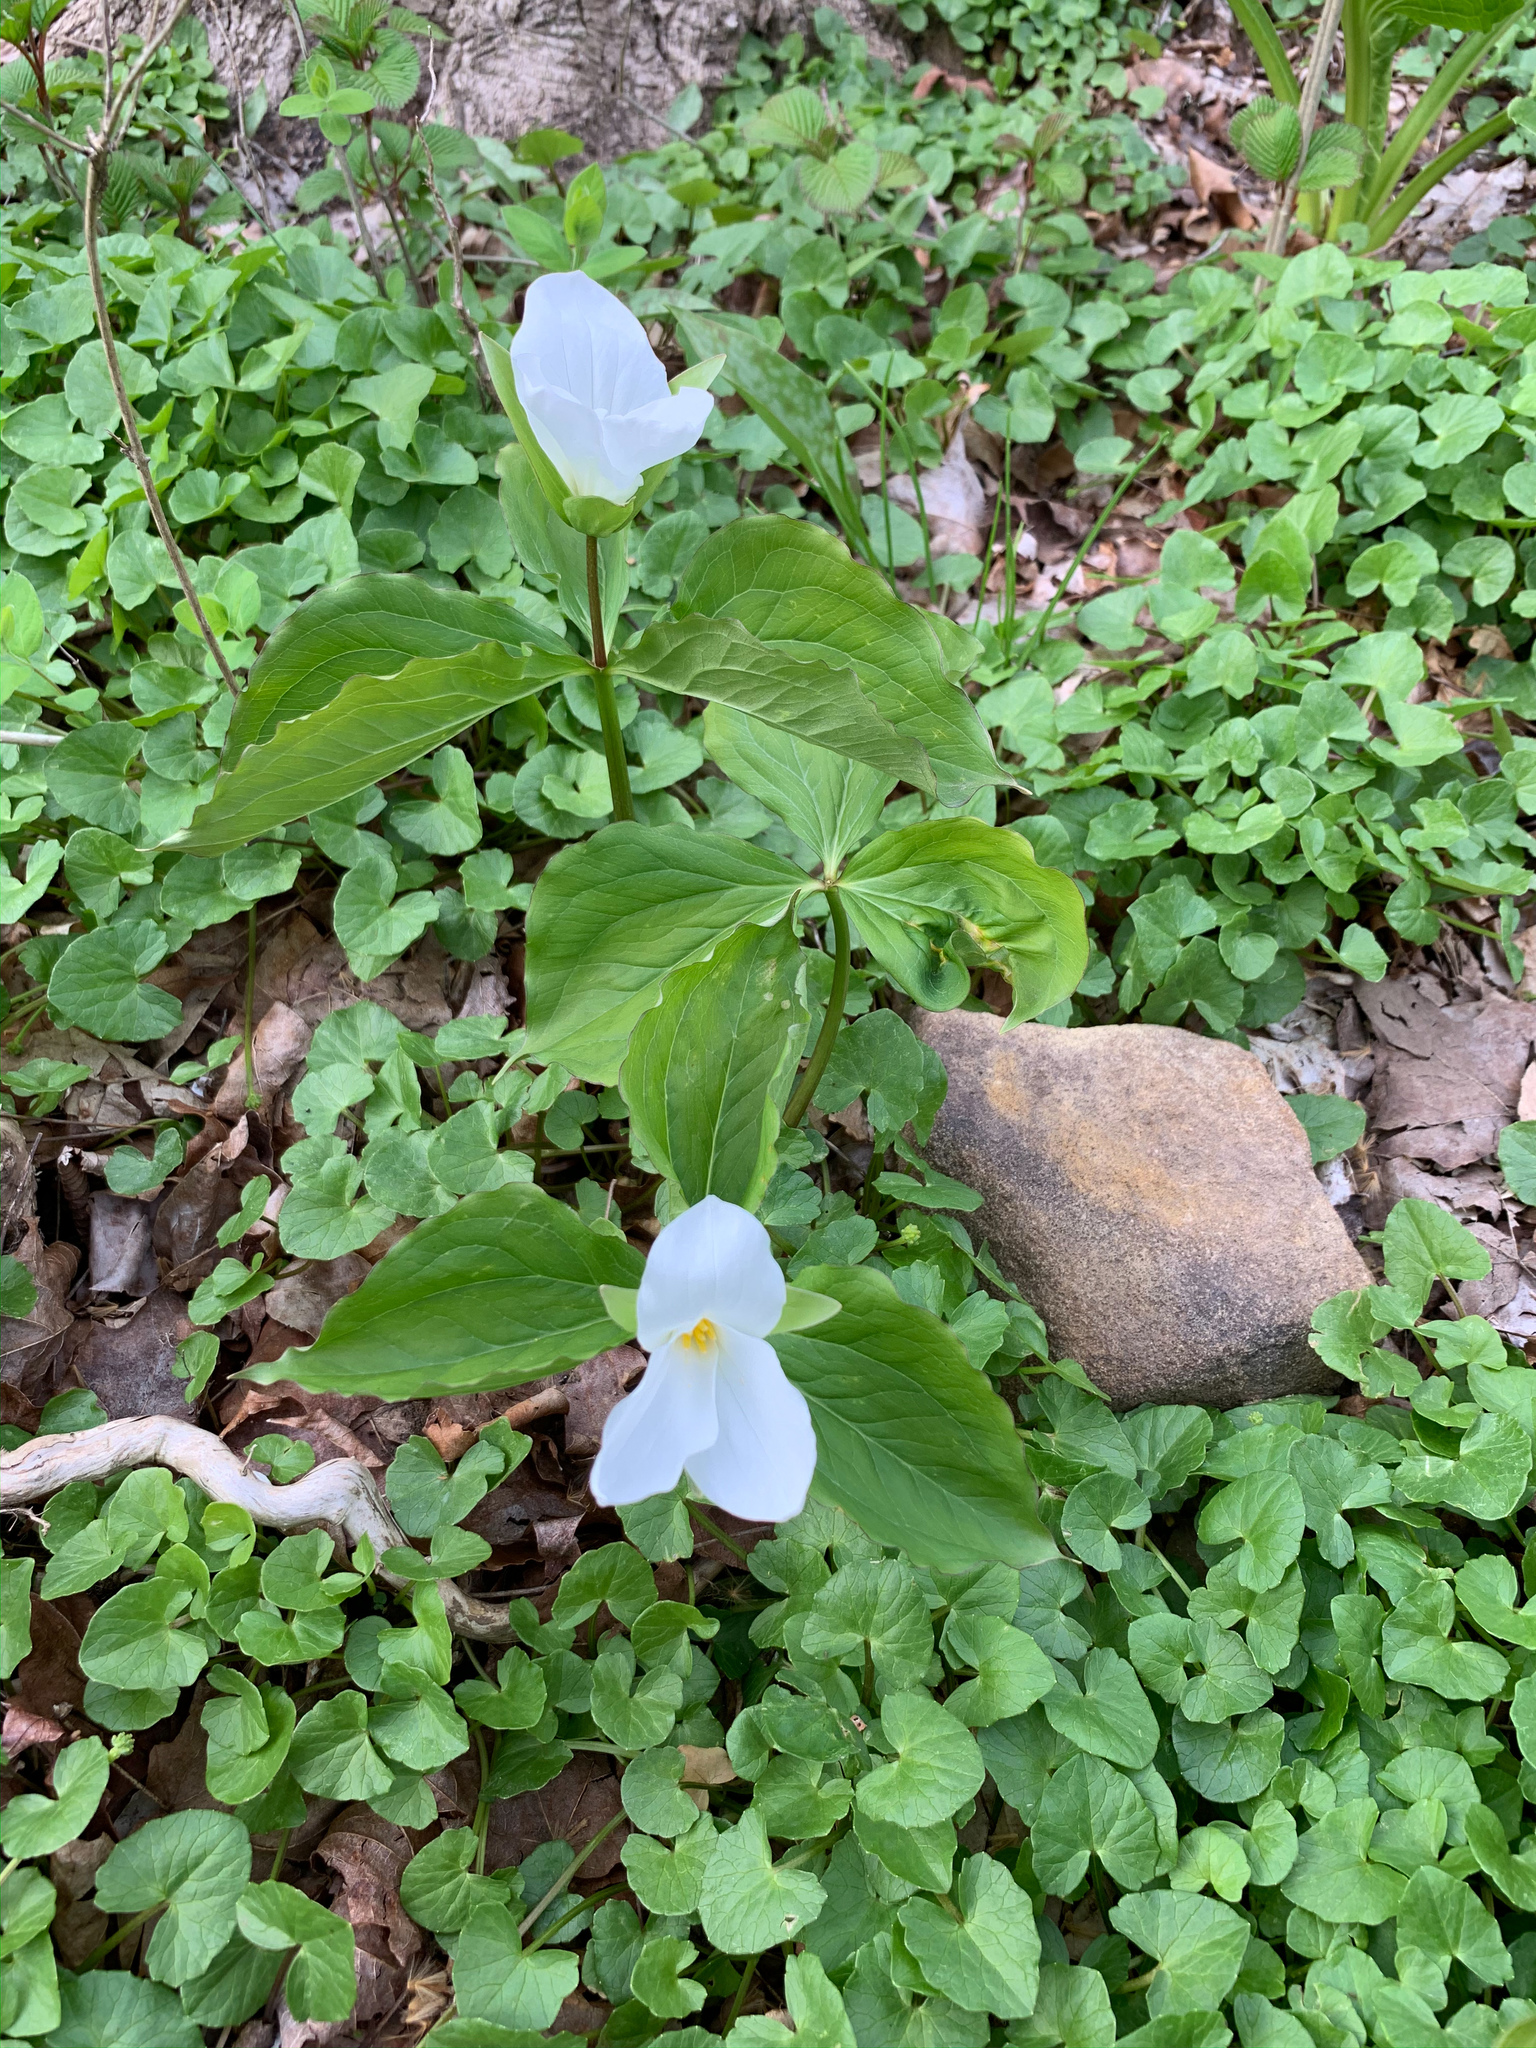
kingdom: Plantae
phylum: Tracheophyta
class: Liliopsida
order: Liliales
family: Melanthiaceae
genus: Trillium
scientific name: Trillium grandiflorum
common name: Great white trillium
